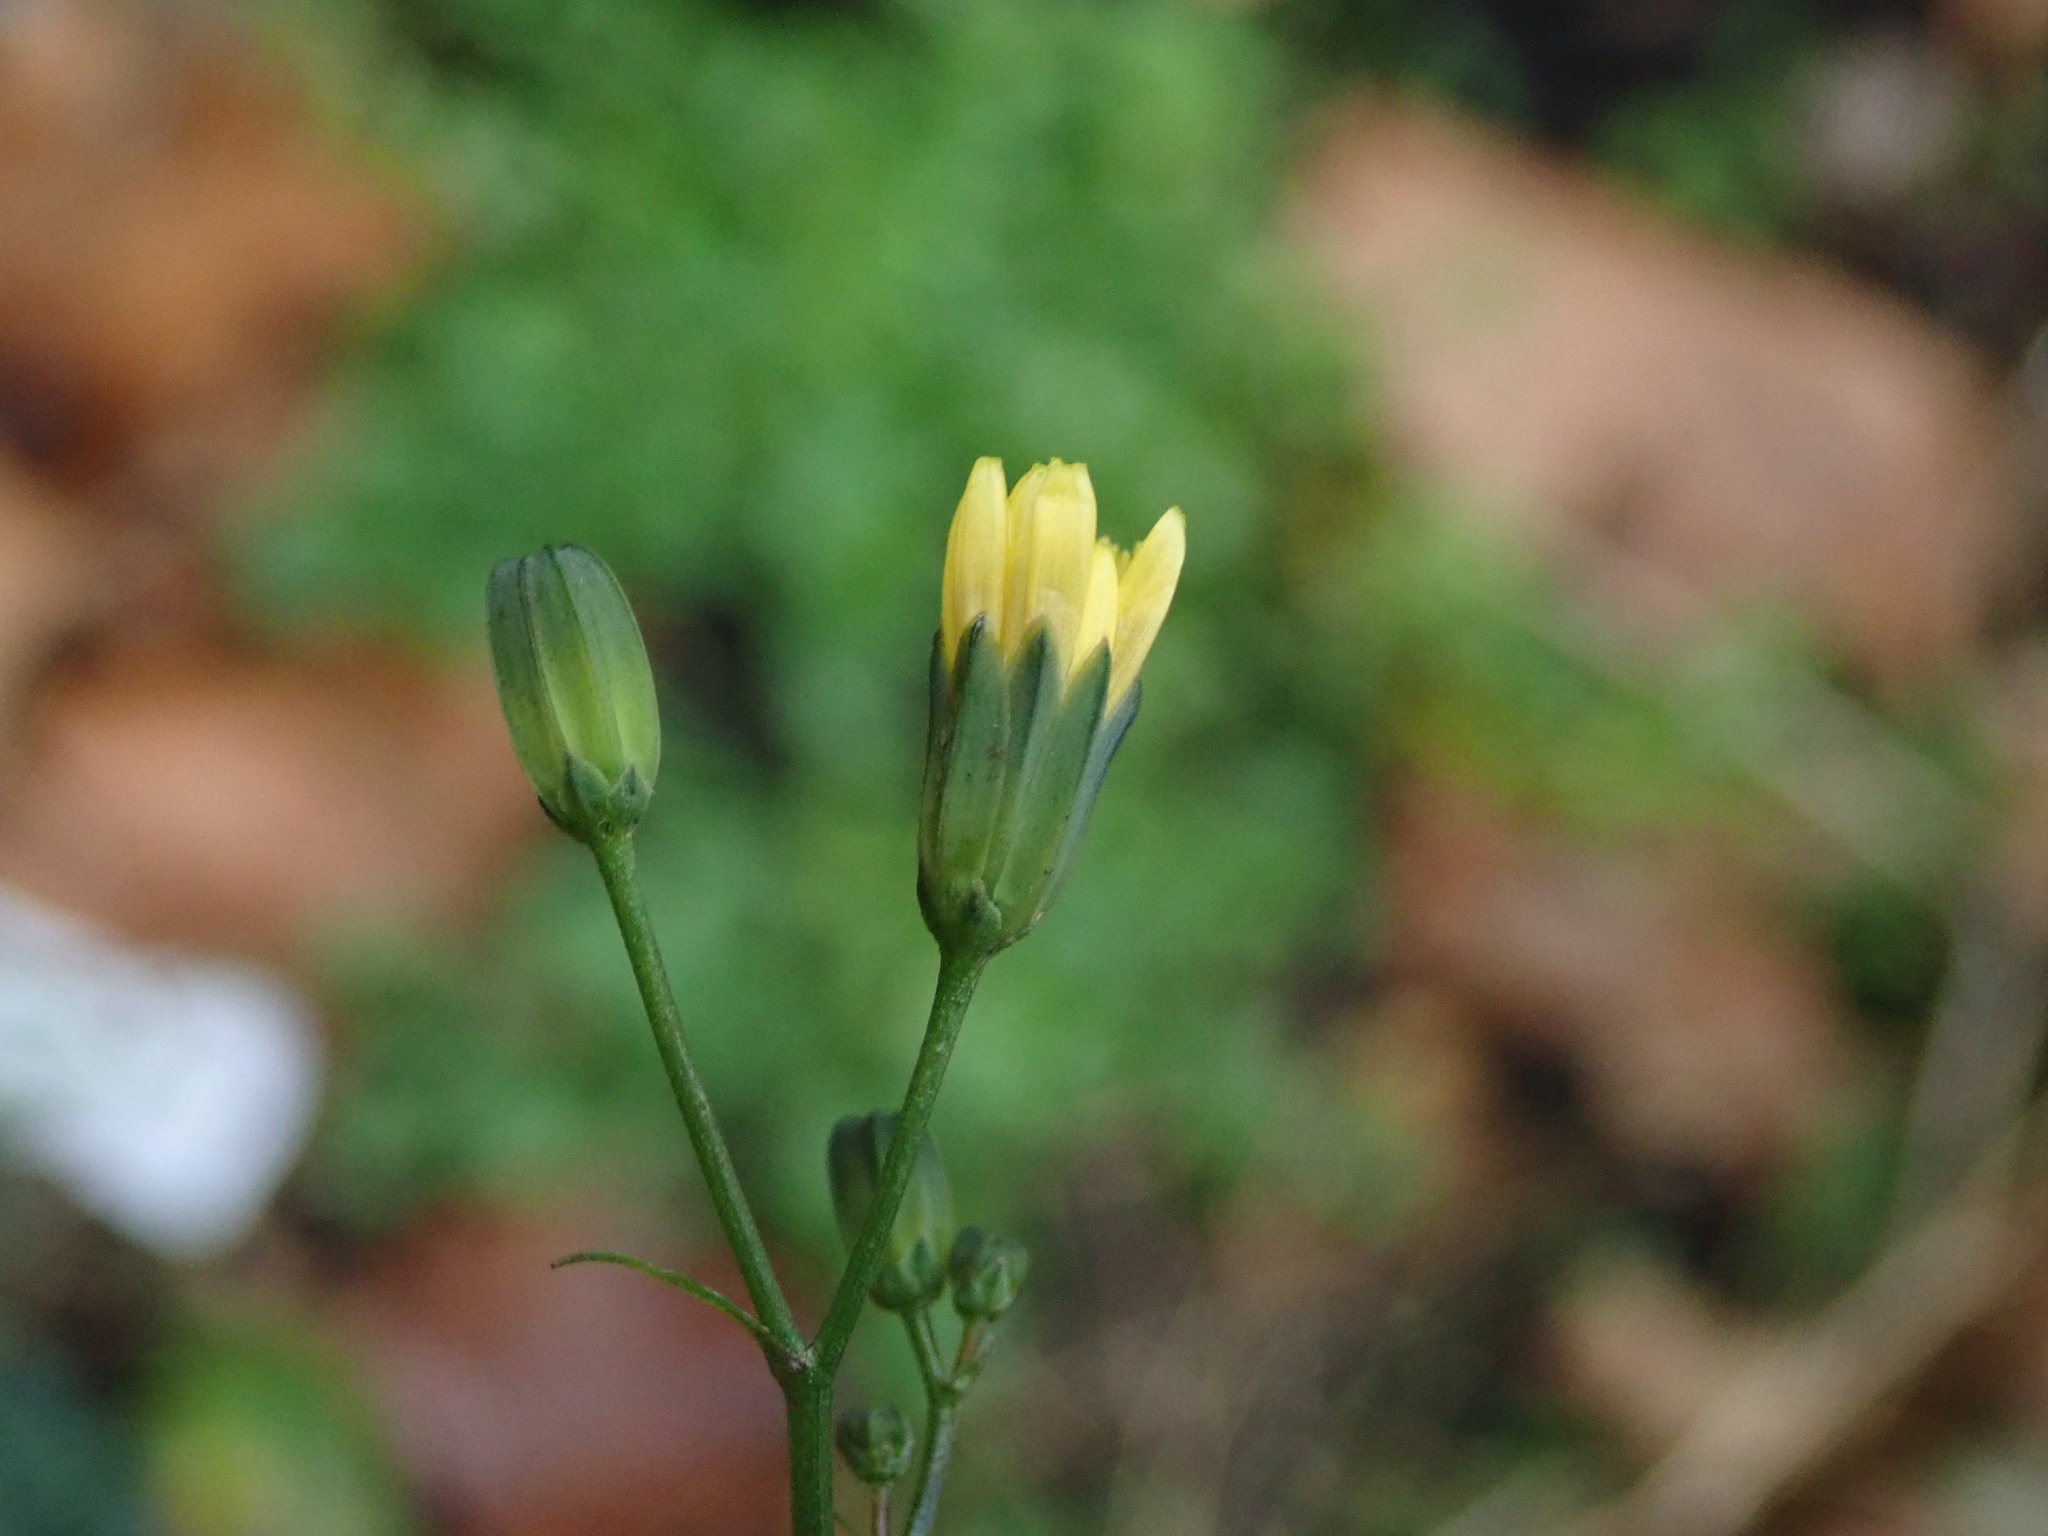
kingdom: Plantae
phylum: Tracheophyta
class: Magnoliopsida
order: Asterales
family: Asteraceae
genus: Lapsana
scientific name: Lapsana communis
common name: Nipplewort
